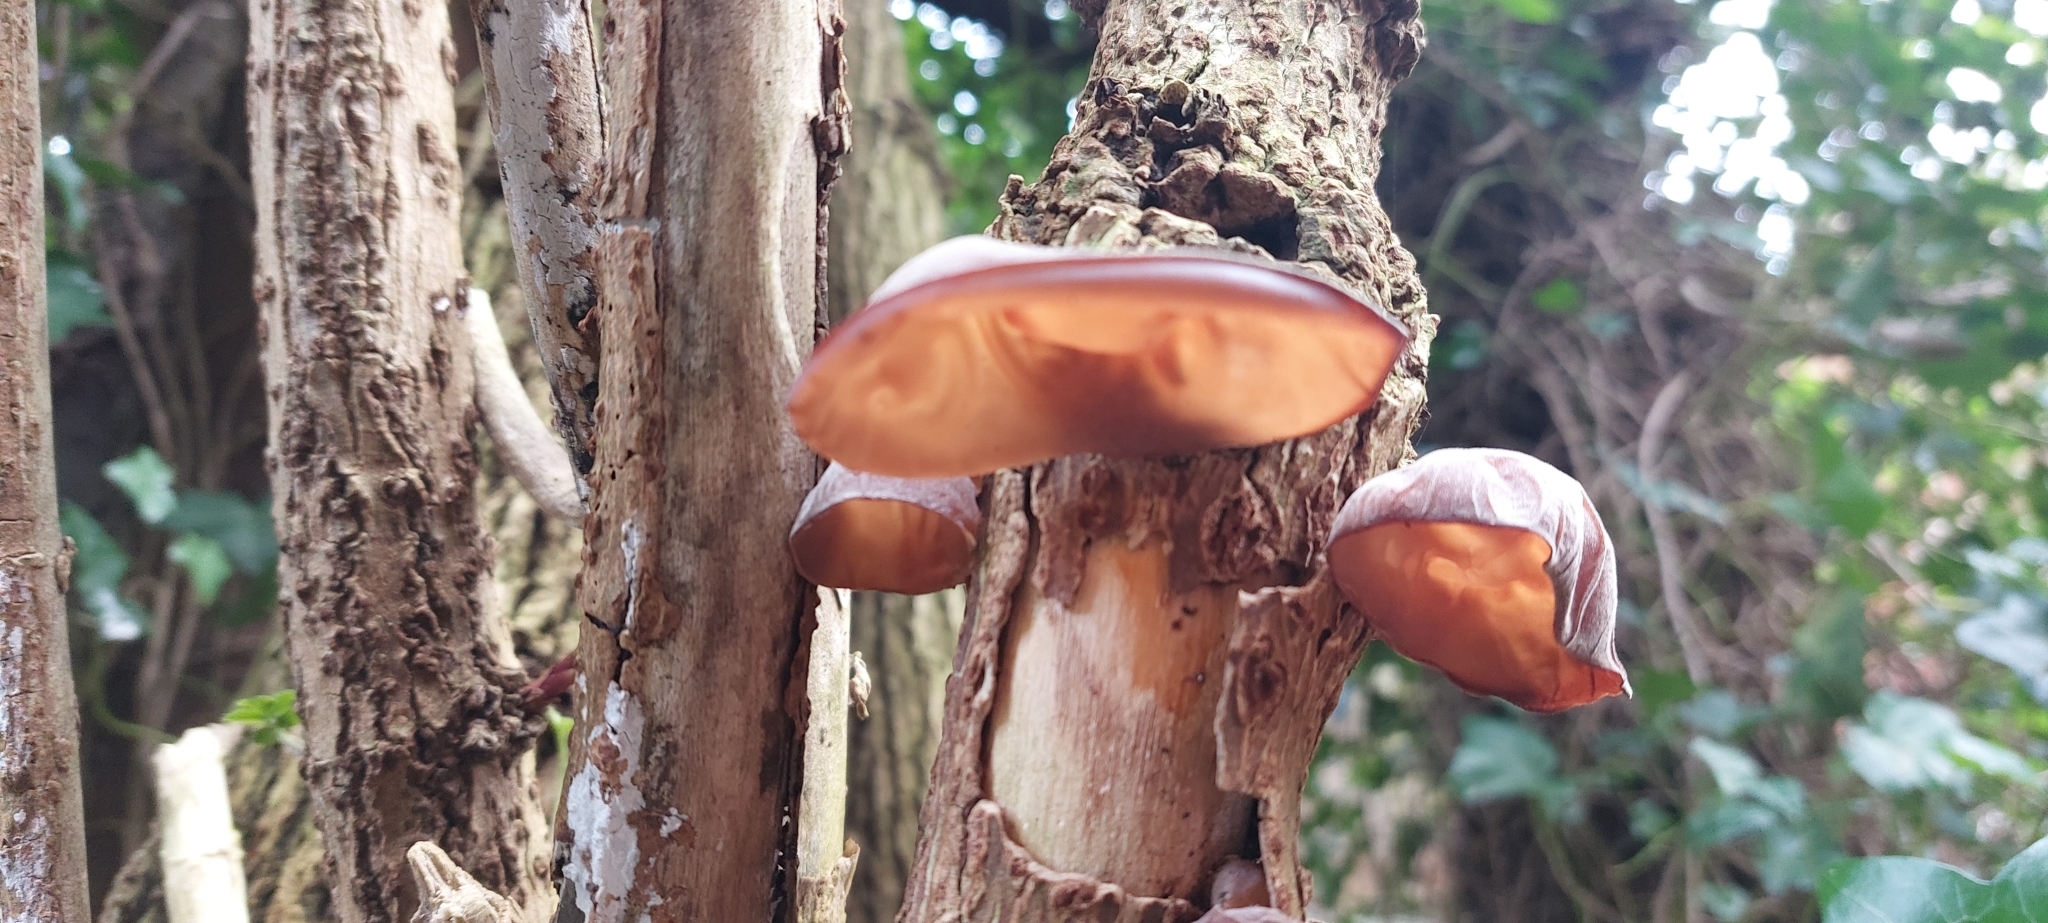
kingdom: Fungi
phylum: Basidiomycota
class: Agaricomycetes
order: Auriculariales
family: Auriculariaceae
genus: Auricularia
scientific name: Auricularia auricula-judae
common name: Jelly ear
